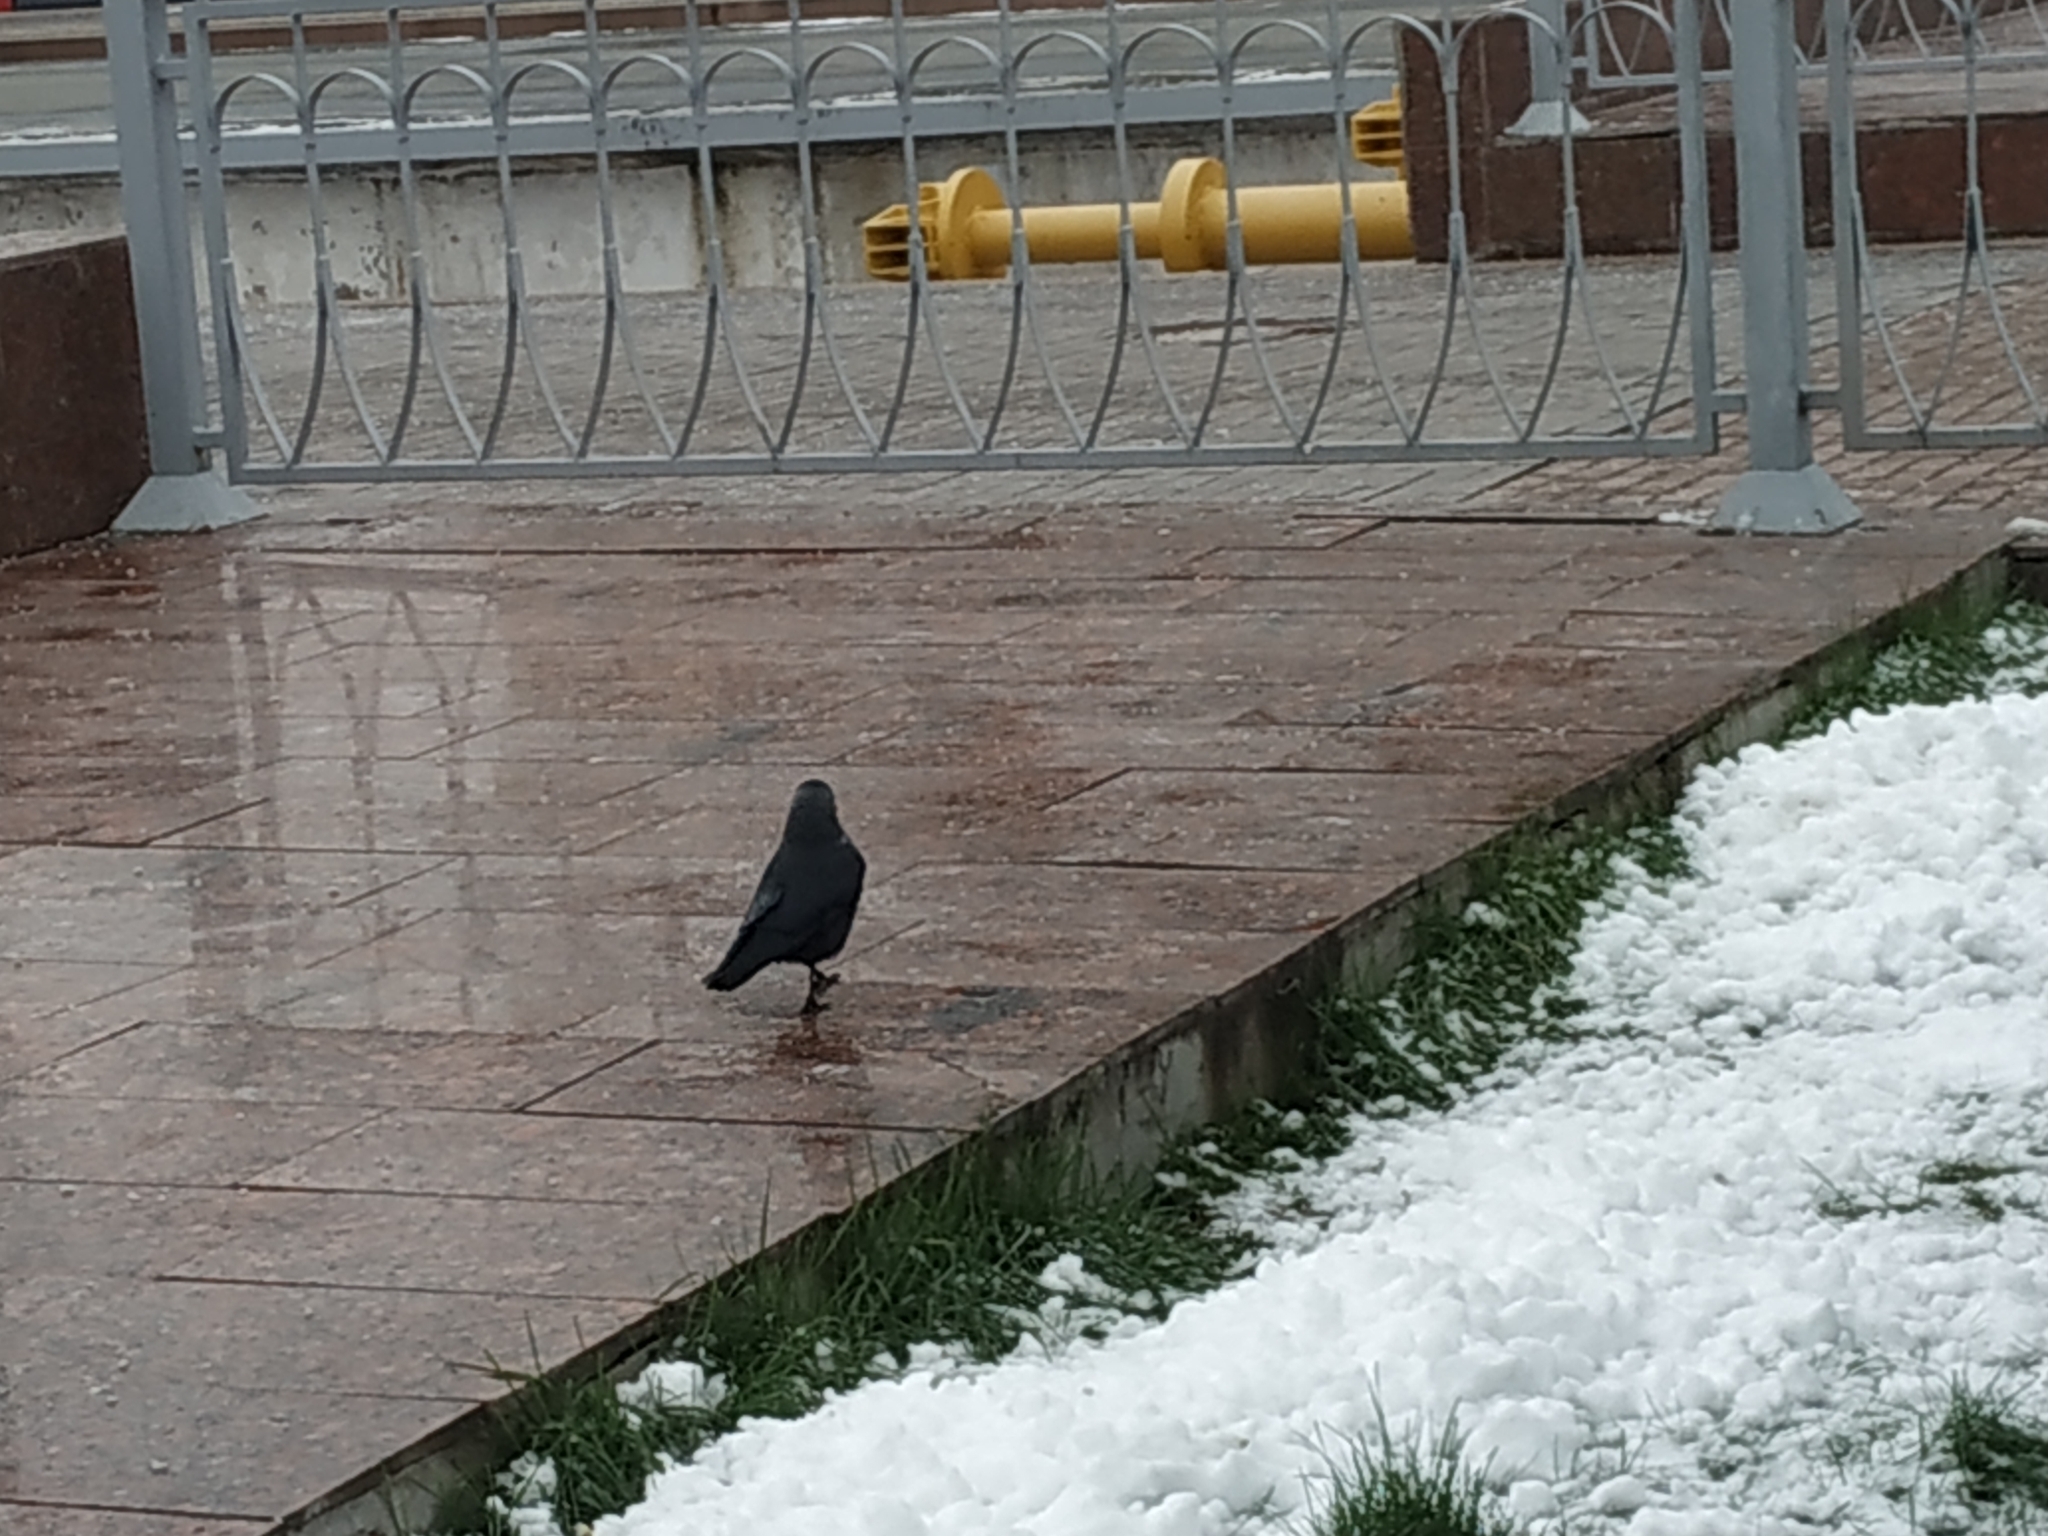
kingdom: Animalia
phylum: Chordata
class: Aves
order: Passeriformes
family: Corvidae
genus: Coloeus
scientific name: Coloeus monedula
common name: Western jackdaw
